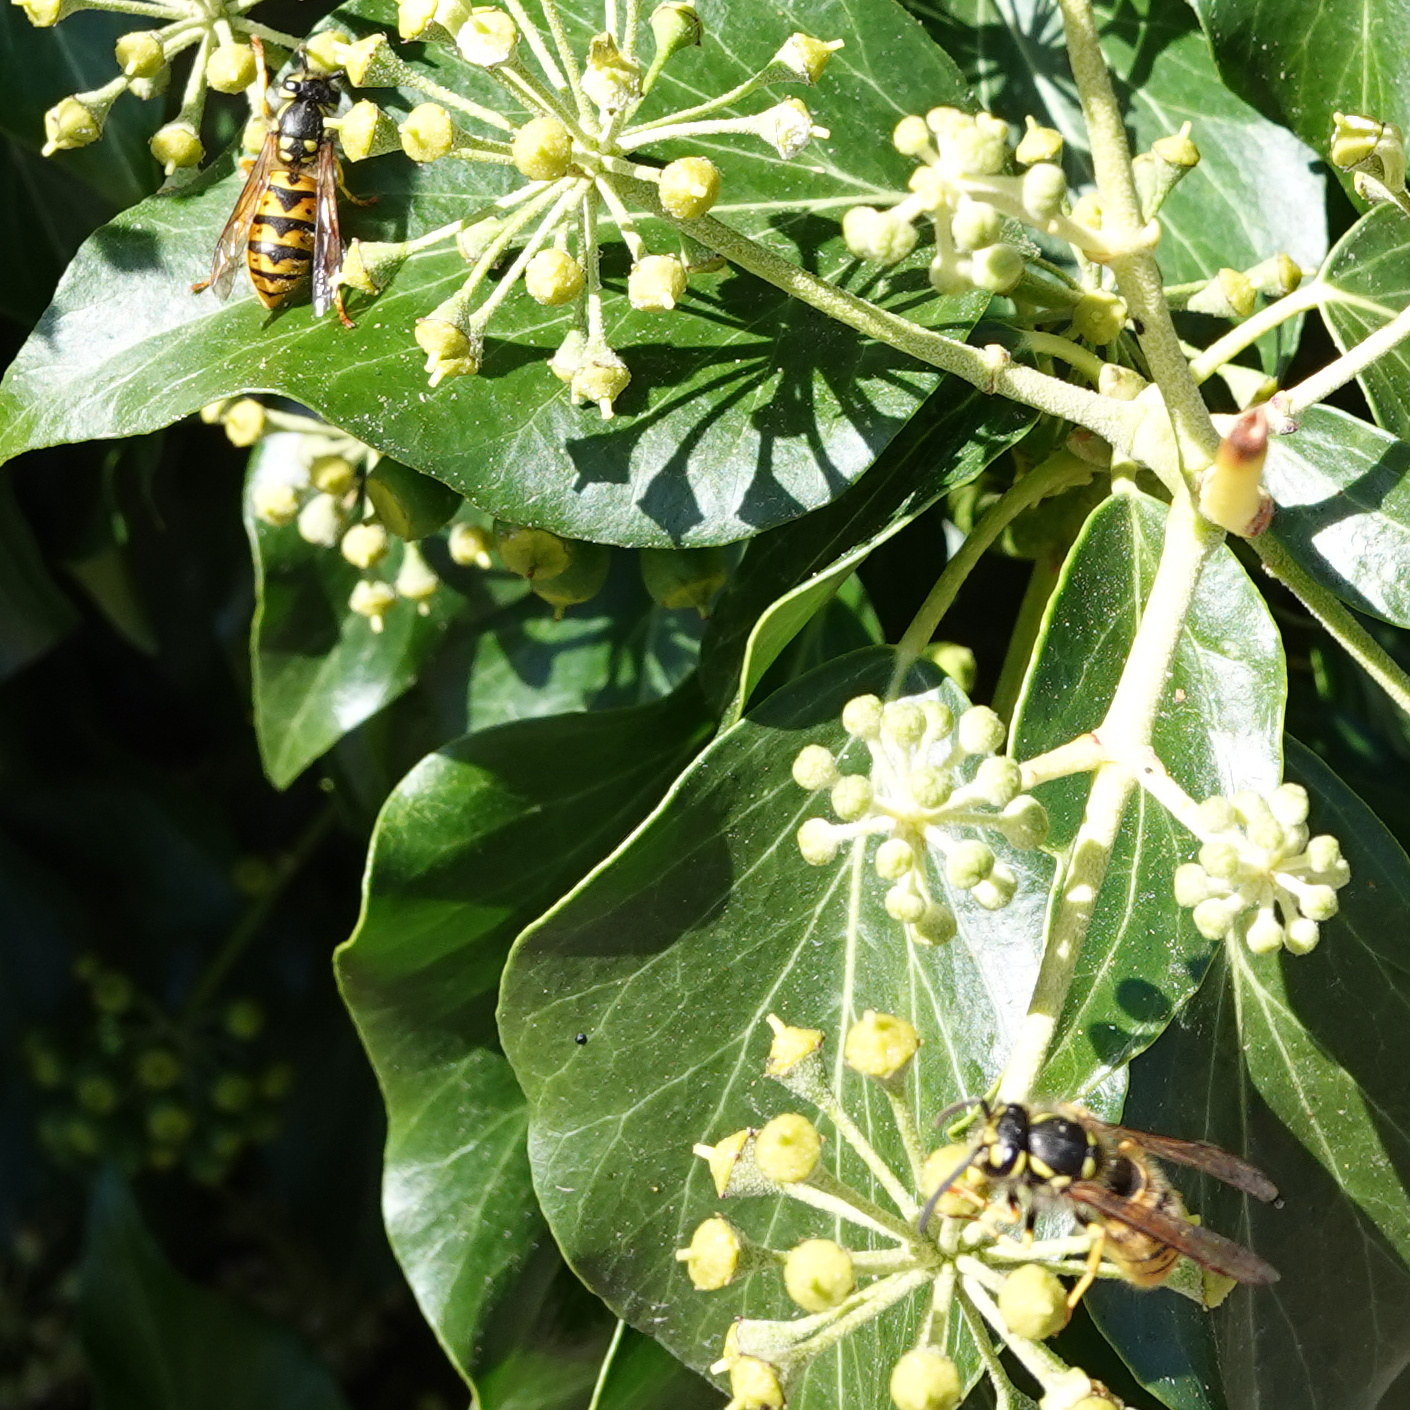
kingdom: Animalia
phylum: Arthropoda
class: Insecta
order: Hymenoptera
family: Vespidae
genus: Vespula
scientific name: Vespula germanica
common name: German wasp
